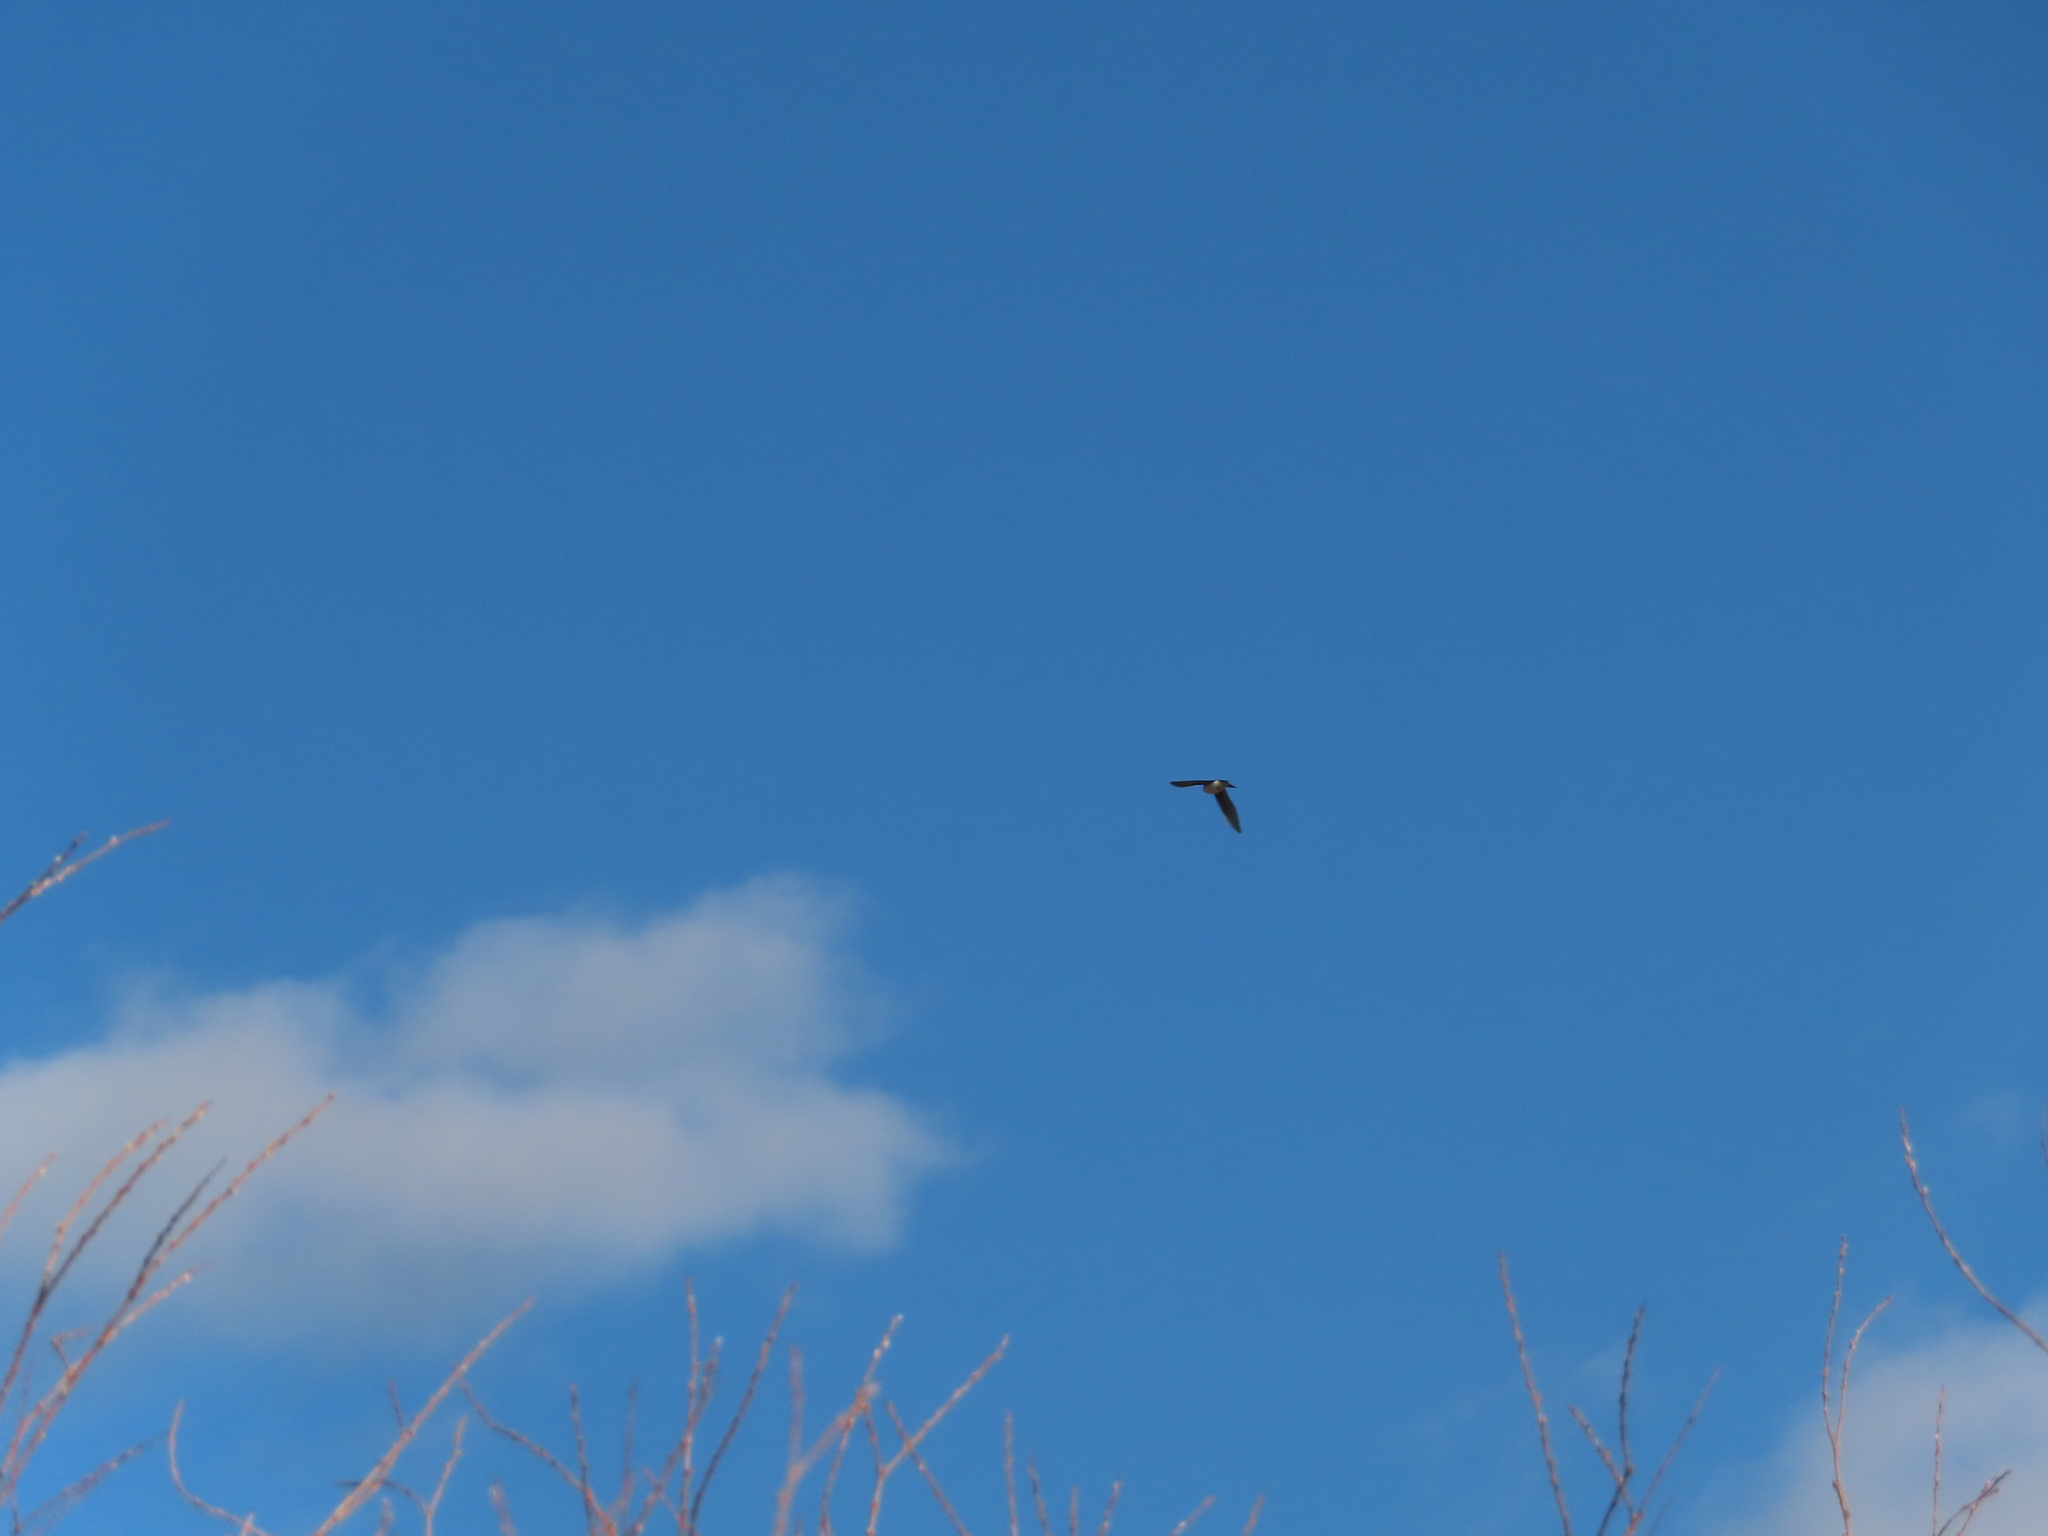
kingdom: Animalia
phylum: Chordata
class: Aves
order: Passeriformes
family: Hirundinidae
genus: Tachycineta
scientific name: Tachycineta bicolor
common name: Tree swallow
